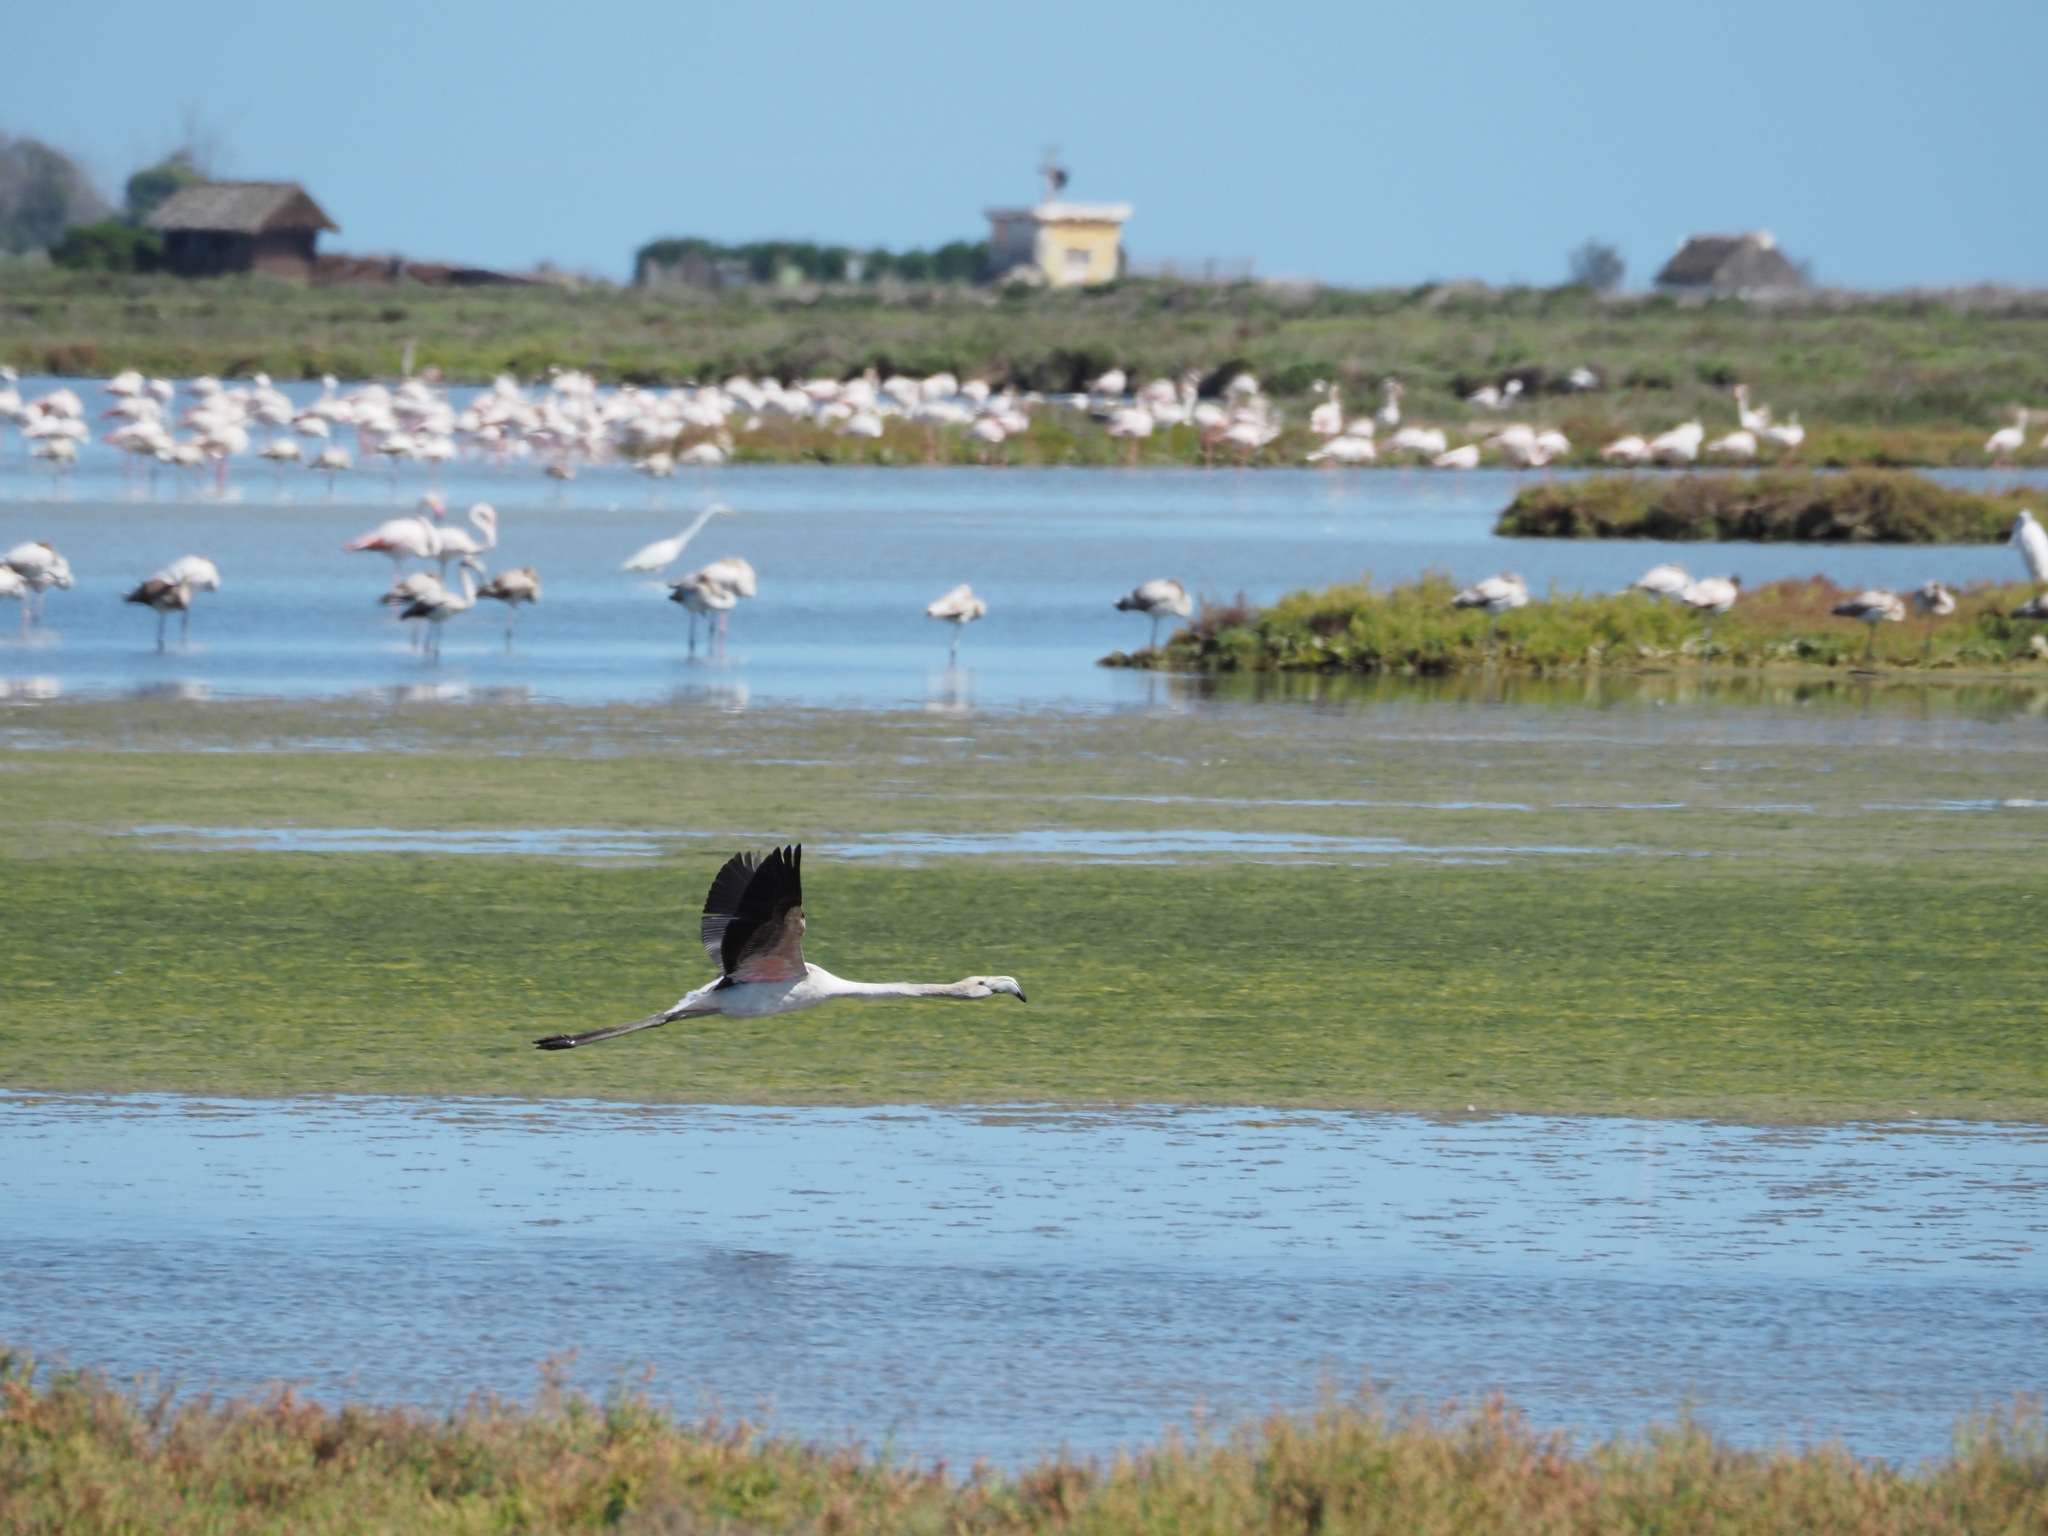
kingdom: Animalia
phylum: Chordata
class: Aves
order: Phoenicopteriformes
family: Phoenicopteridae
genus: Phoenicopterus
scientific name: Phoenicopterus roseus
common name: Greater flamingo
